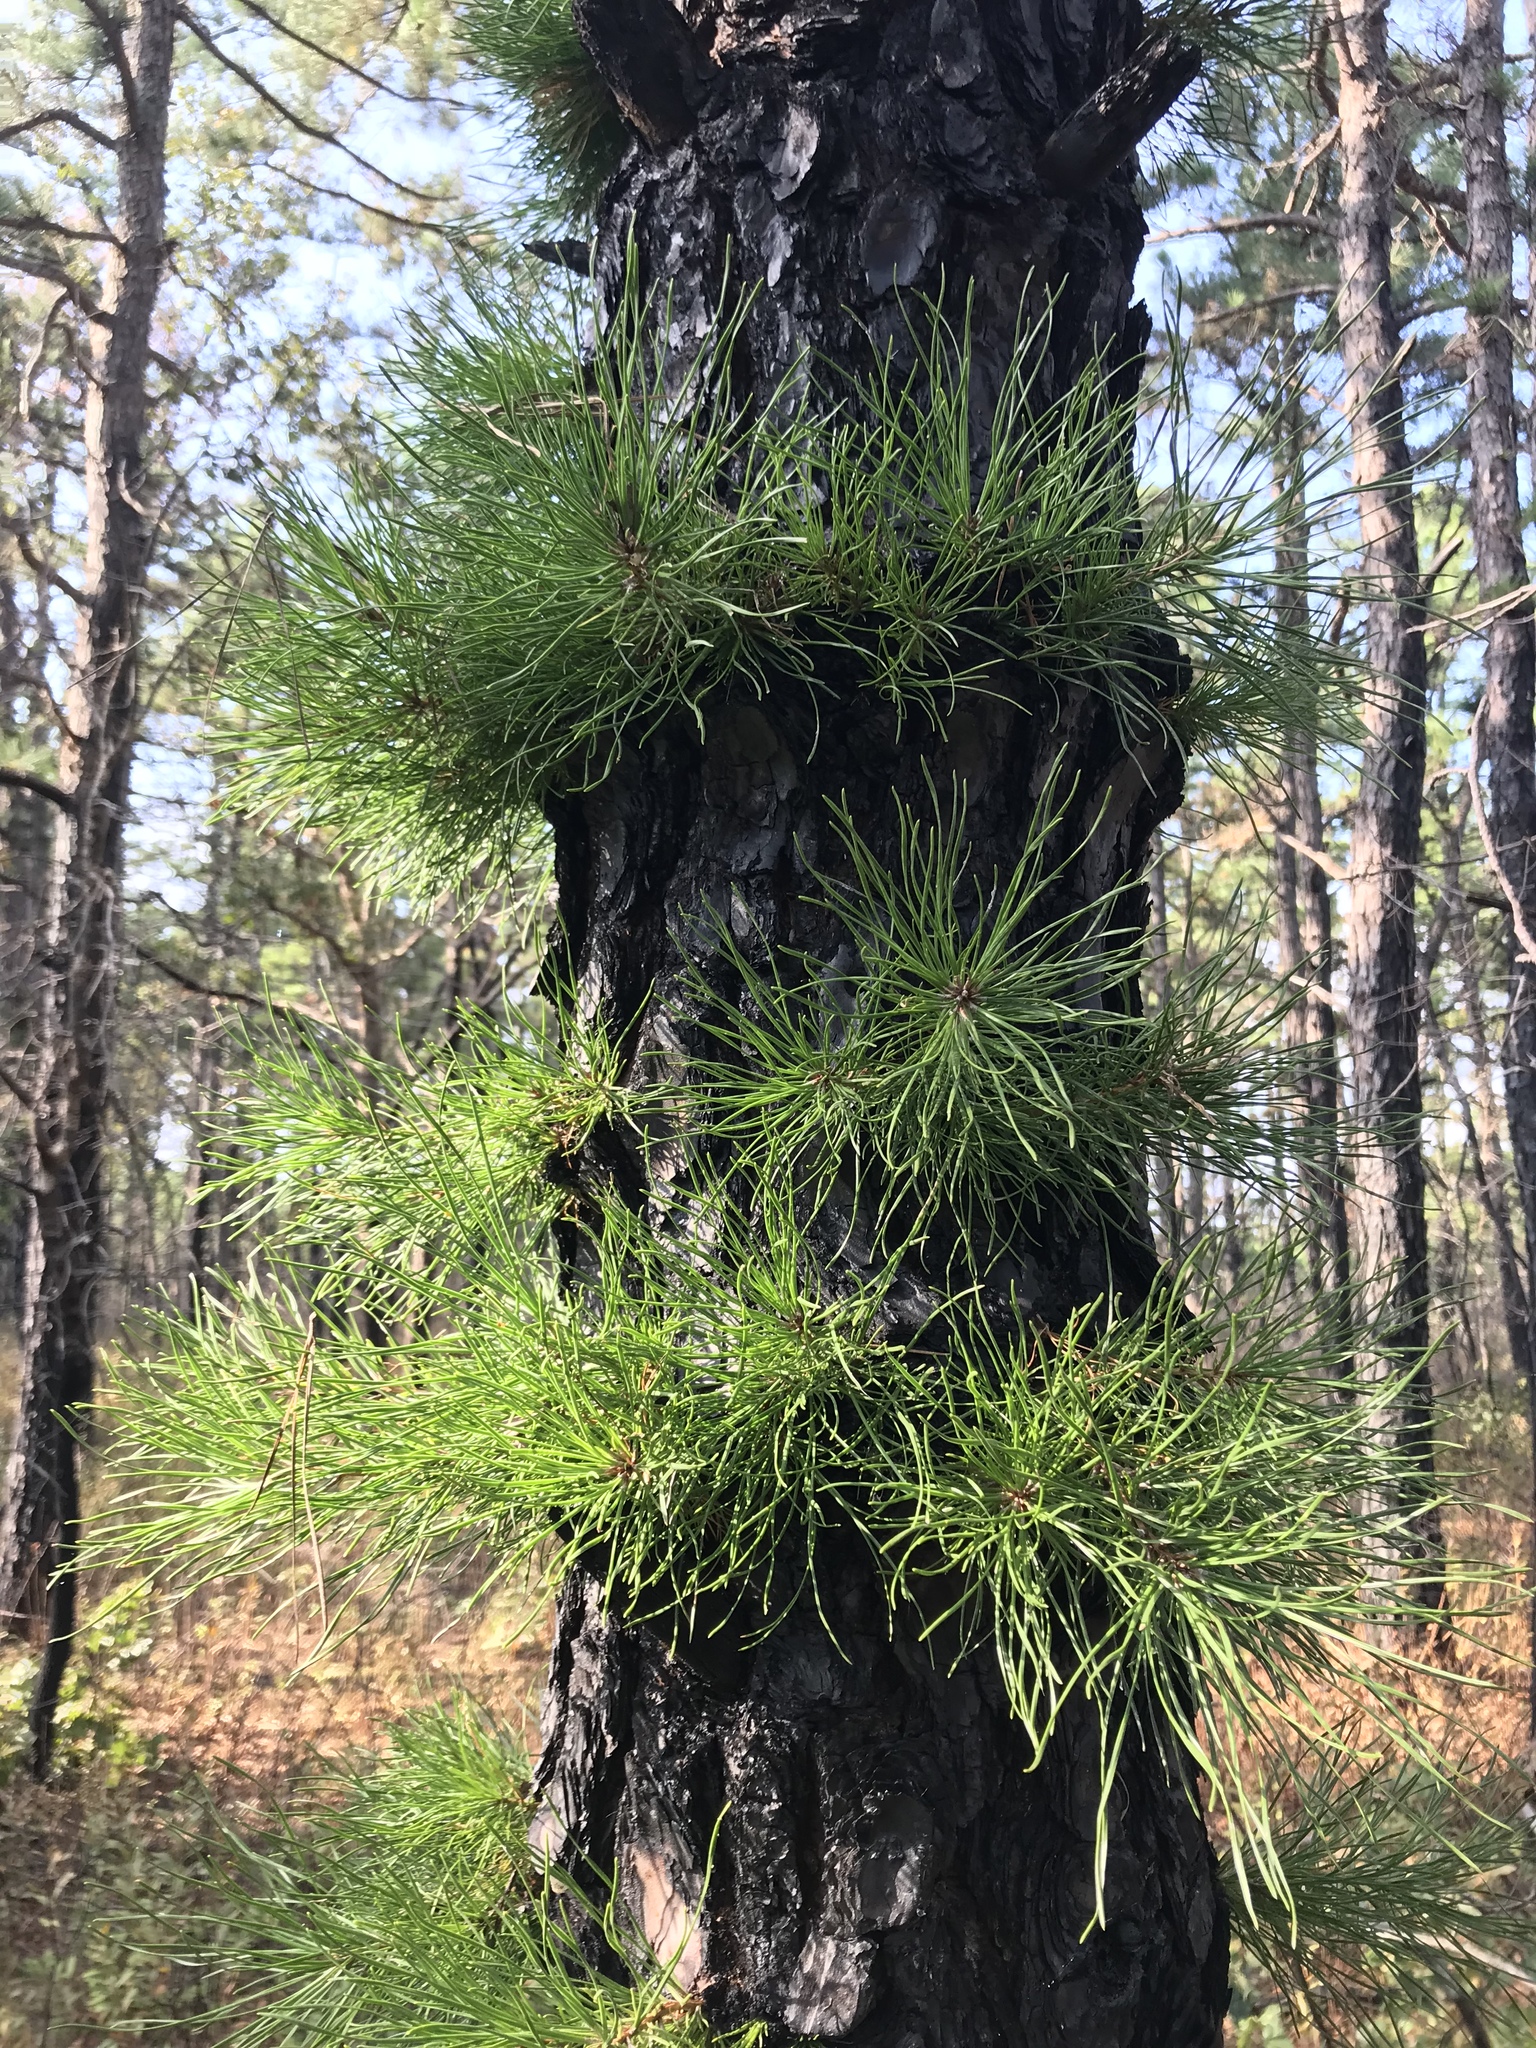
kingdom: Plantae
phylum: Tracheophyta
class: Pinopsida
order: Pinales
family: Pinaceae
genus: Pinus
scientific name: Pinus rigida
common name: Pitch pine
